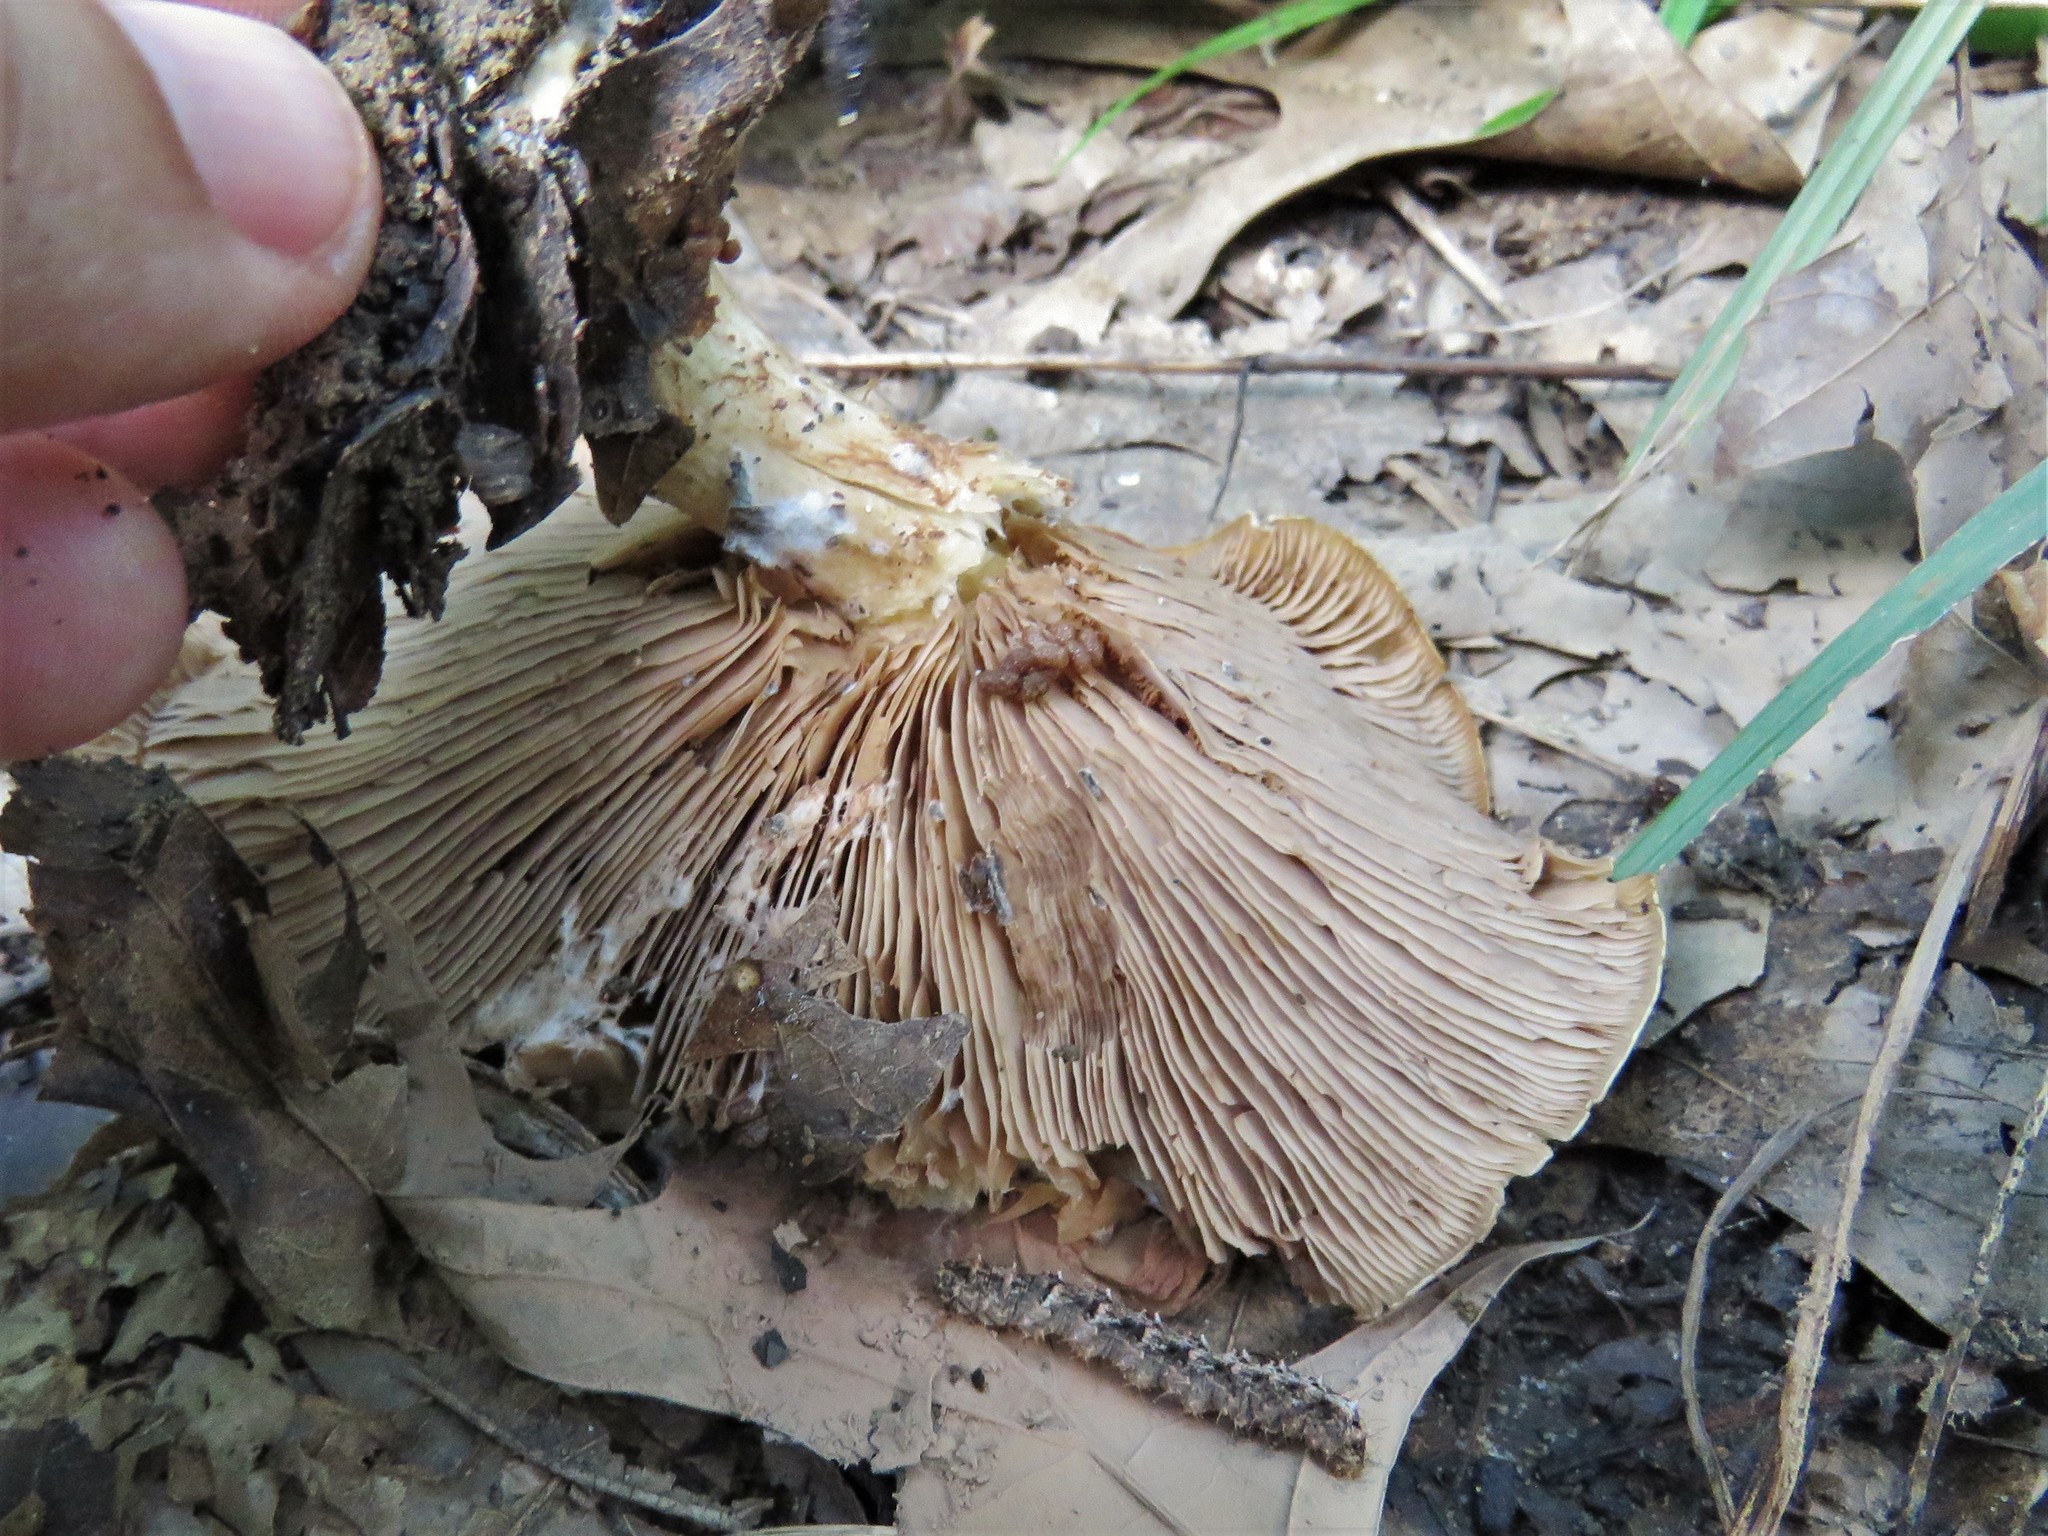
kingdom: Animalia
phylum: Arthropoda
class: Insecta
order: Lepidoptera
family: Erebidae
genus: Metalectra
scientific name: Metalectra discalis
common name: Common fungus moth
